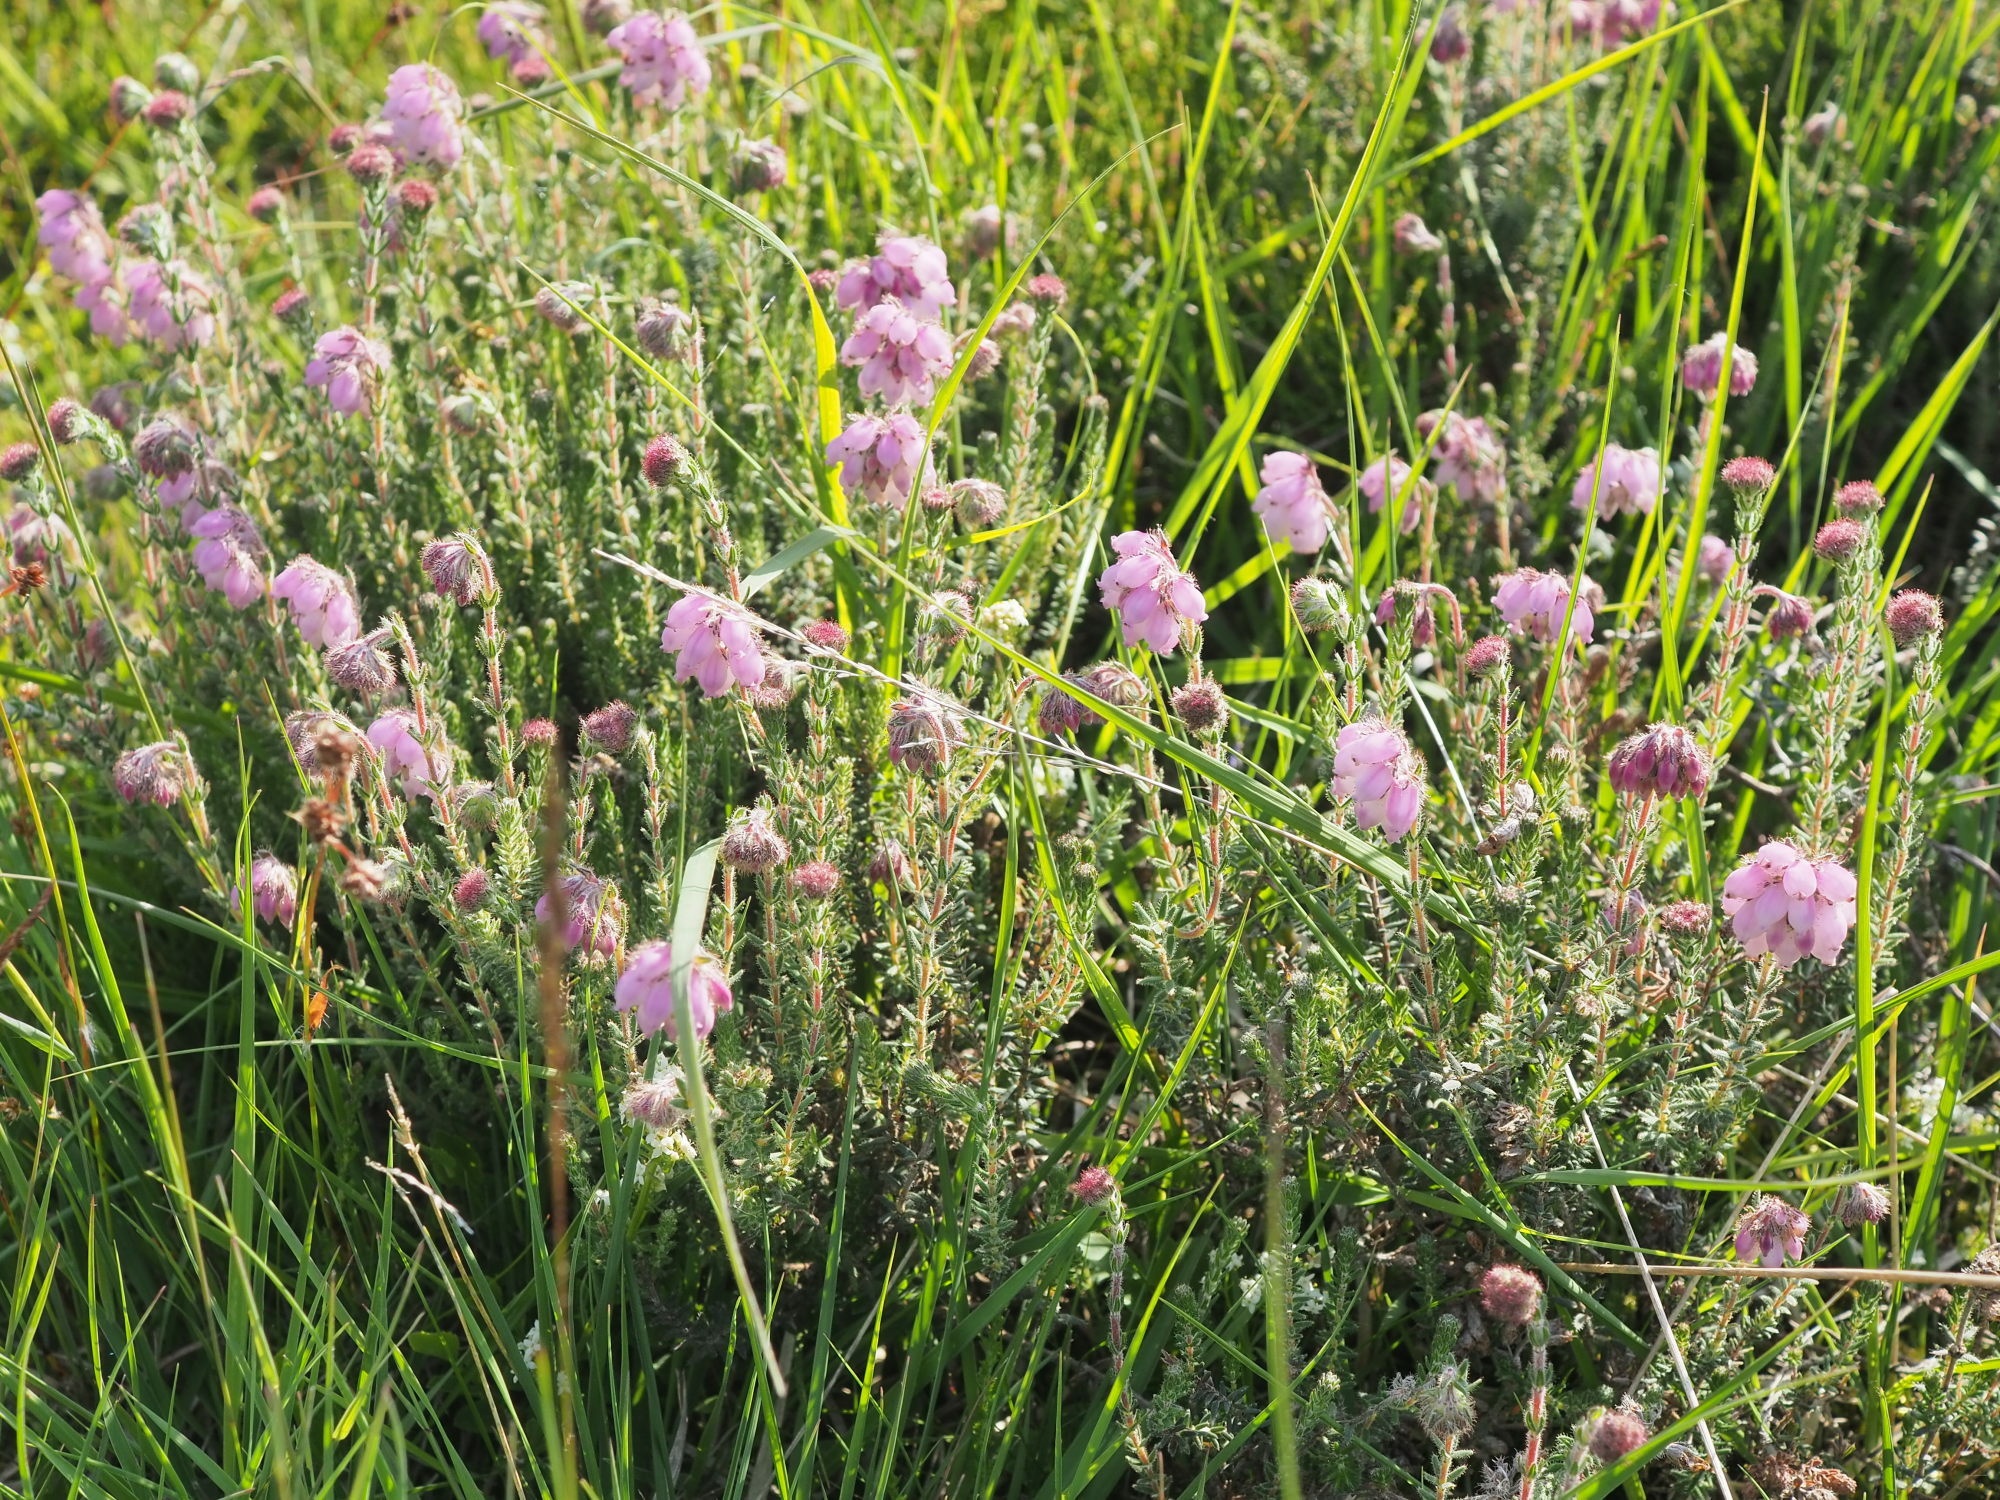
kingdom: Plantae
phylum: Tracheophyta
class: Magnoliopsida
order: Ericales
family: Ericaceae
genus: Erica
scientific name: Erica tetralix
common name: Cross-leaved heath
